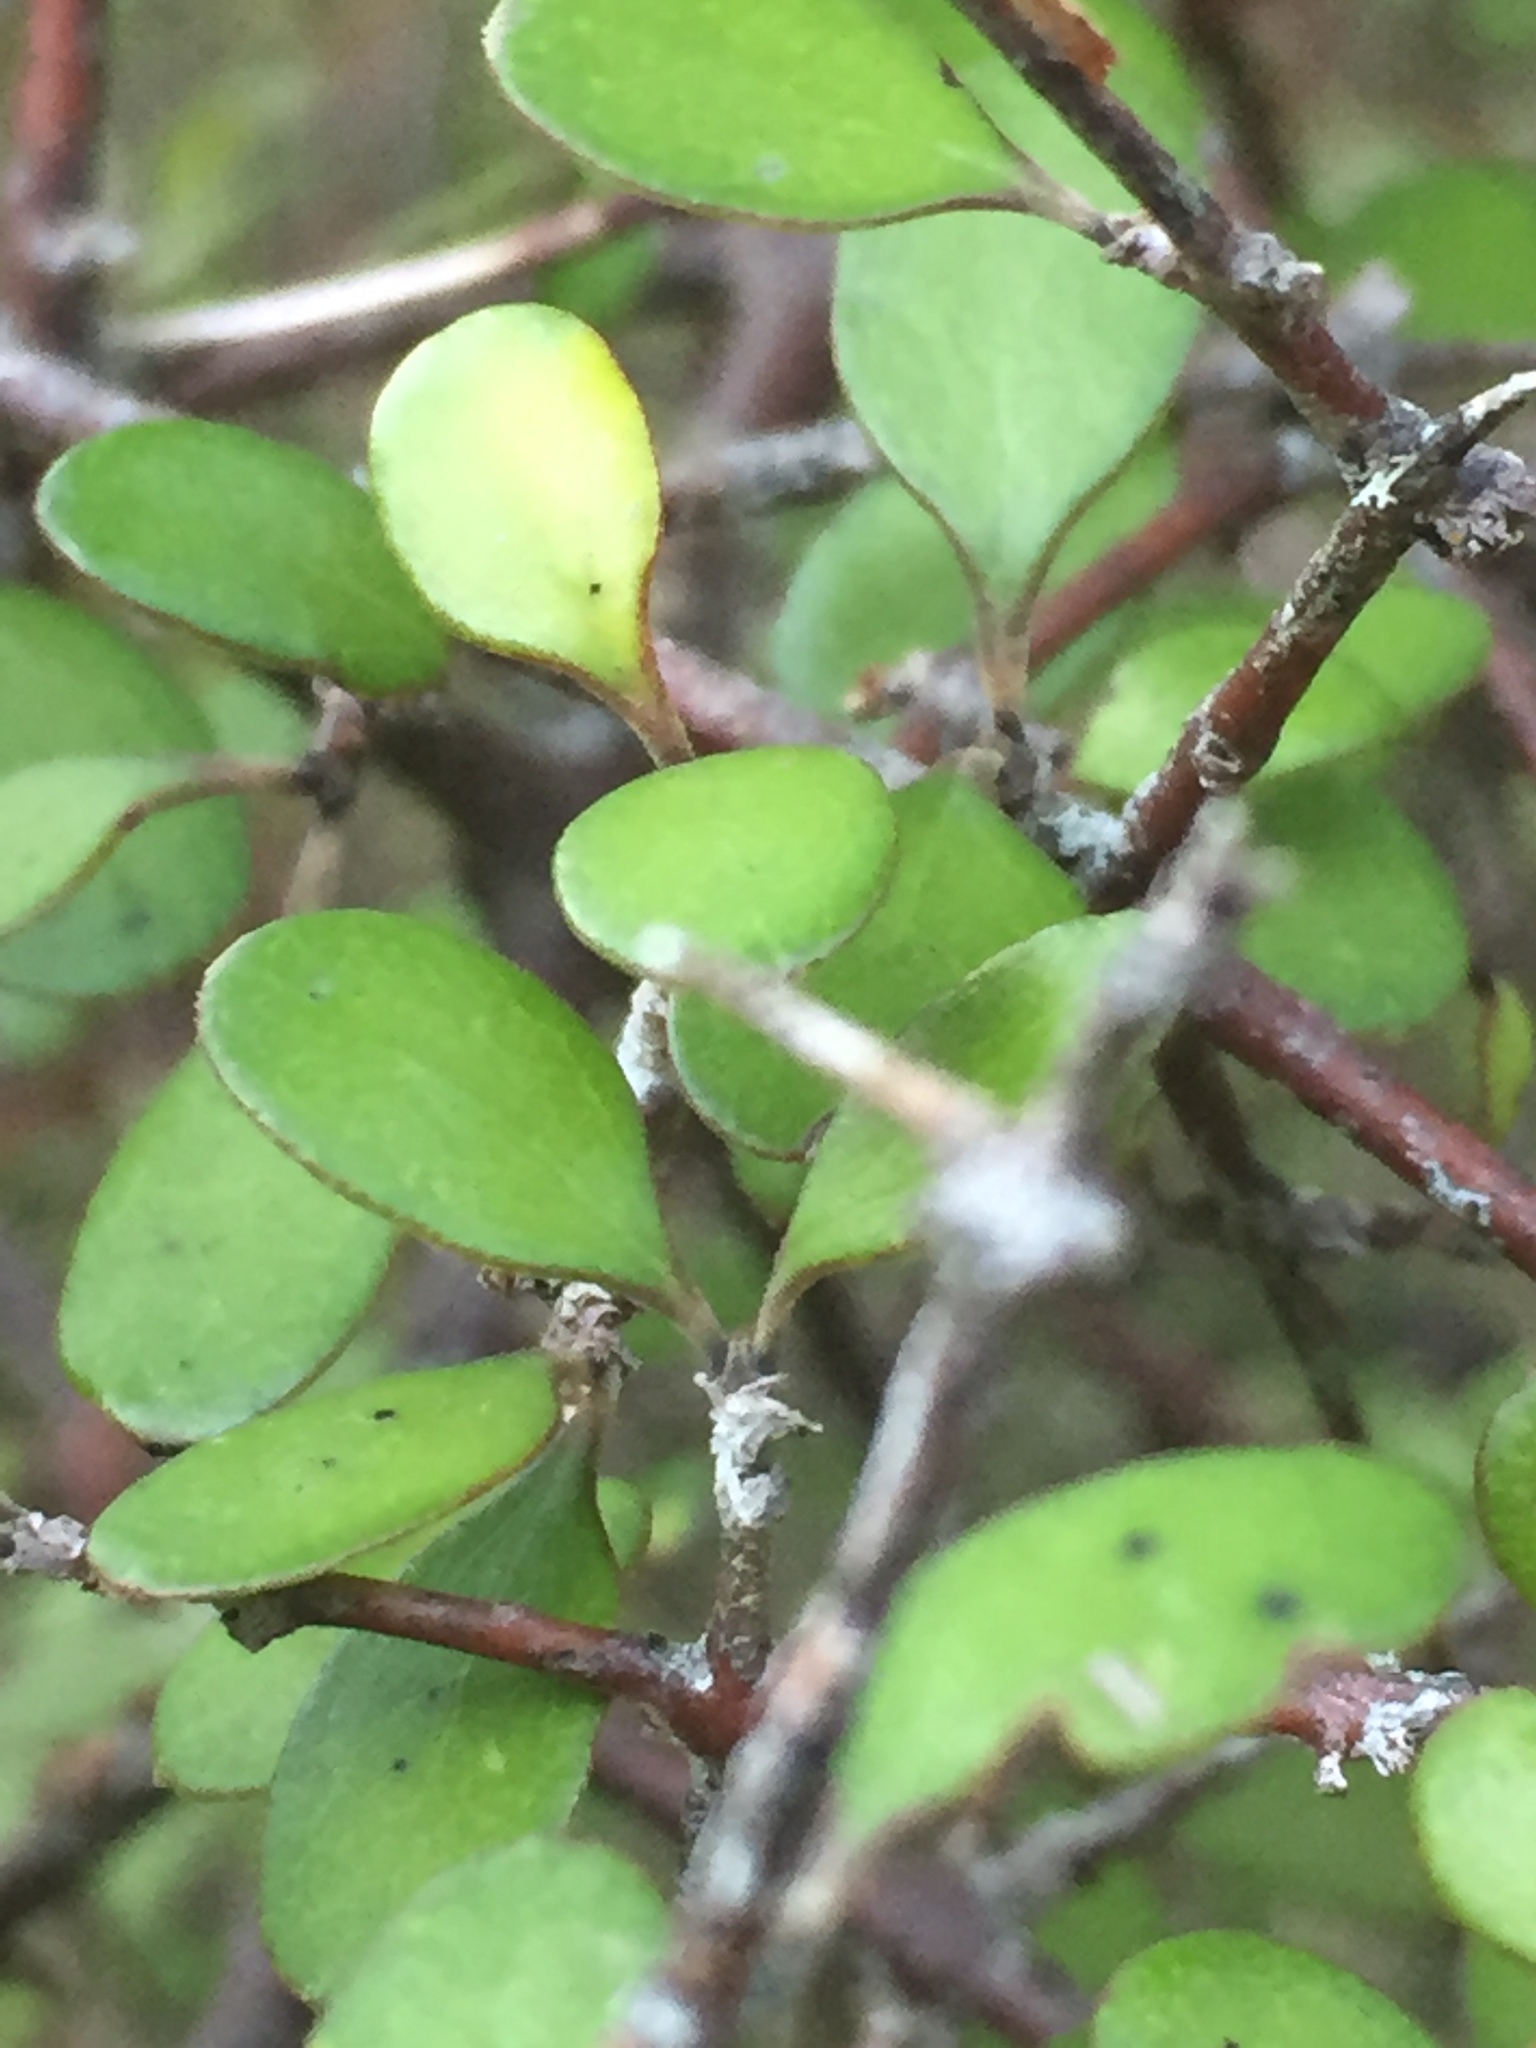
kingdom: Plantae
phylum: Tracheophyta
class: Magnoliopsida
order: Gentianales
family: Rubiaceae
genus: Coprosma
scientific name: Coprosma crassifolia
